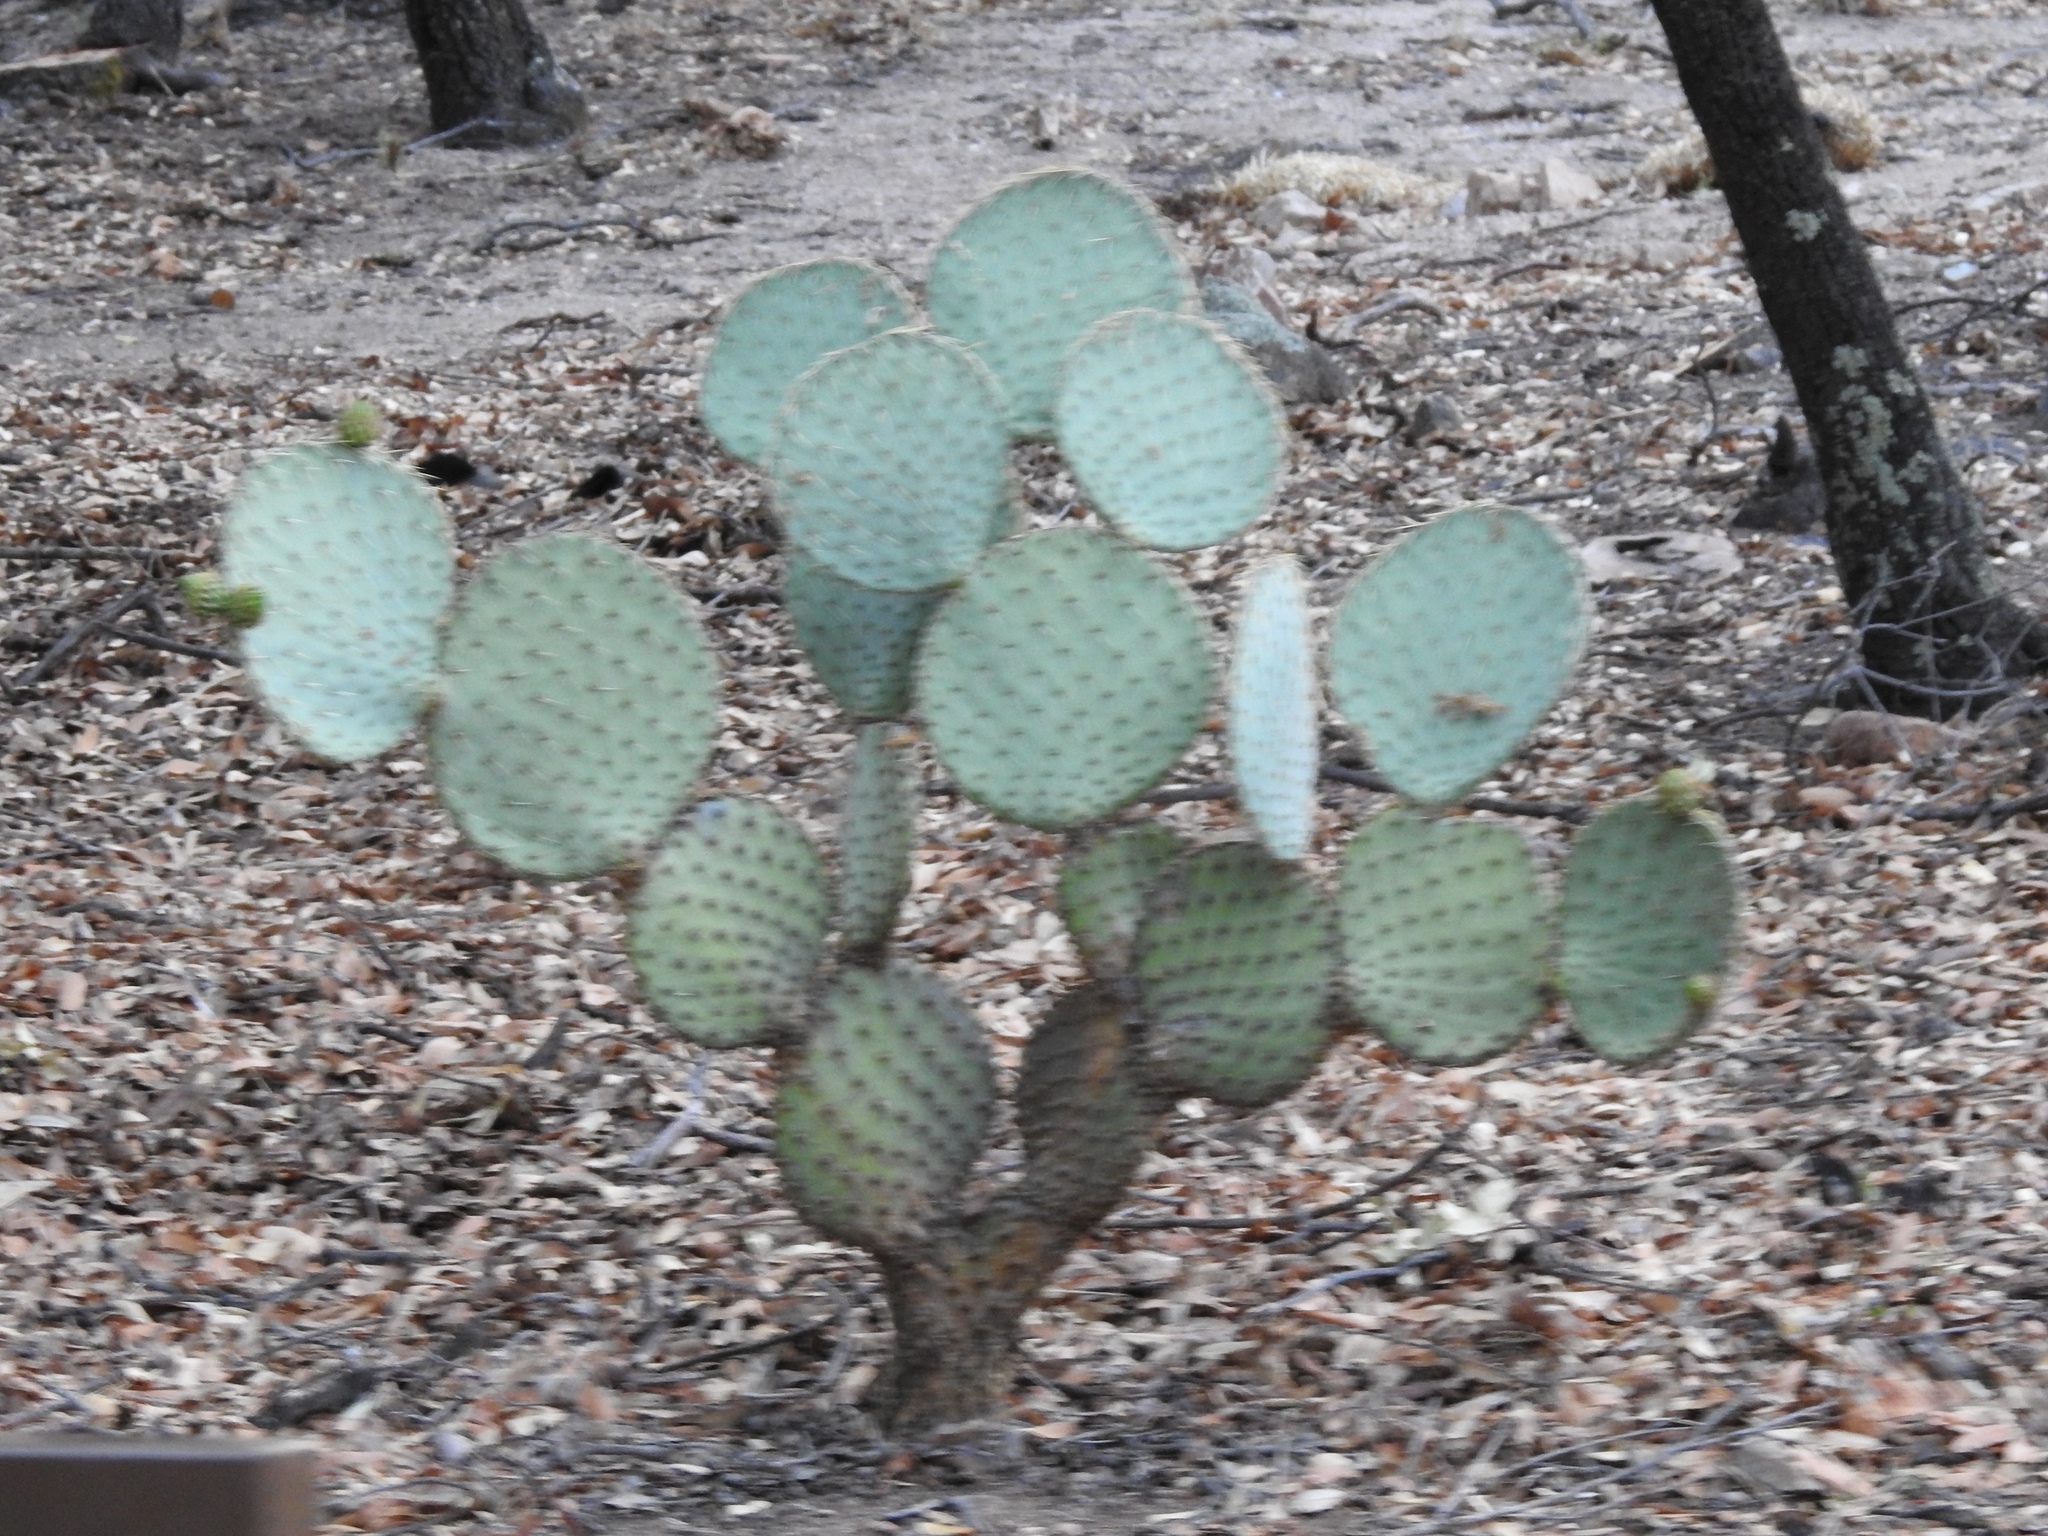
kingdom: Plantae
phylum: Tracheophyta
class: Magnoliopsida
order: Caryophyllales
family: Cactaceae
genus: Opuntia
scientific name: Opuntia chlorotica
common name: Dollar-joint prickly-pear
